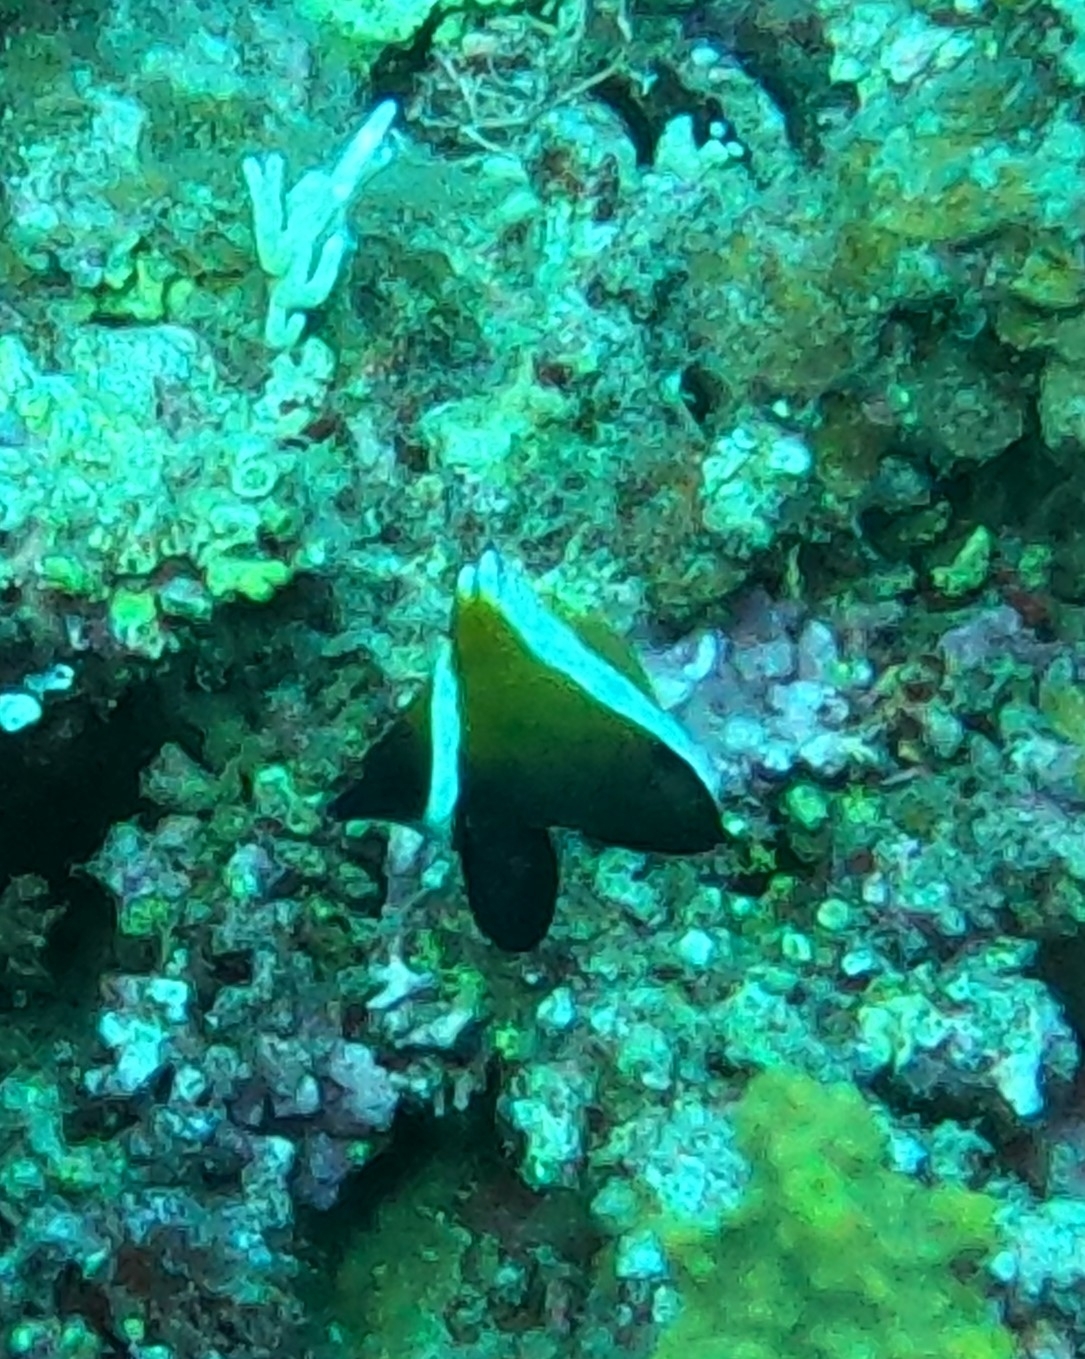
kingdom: Animalia
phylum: Chordata
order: Perciformes
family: Chaetodontidae
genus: Heniochus
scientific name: Heniochus varius
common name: Horned bannerfish
